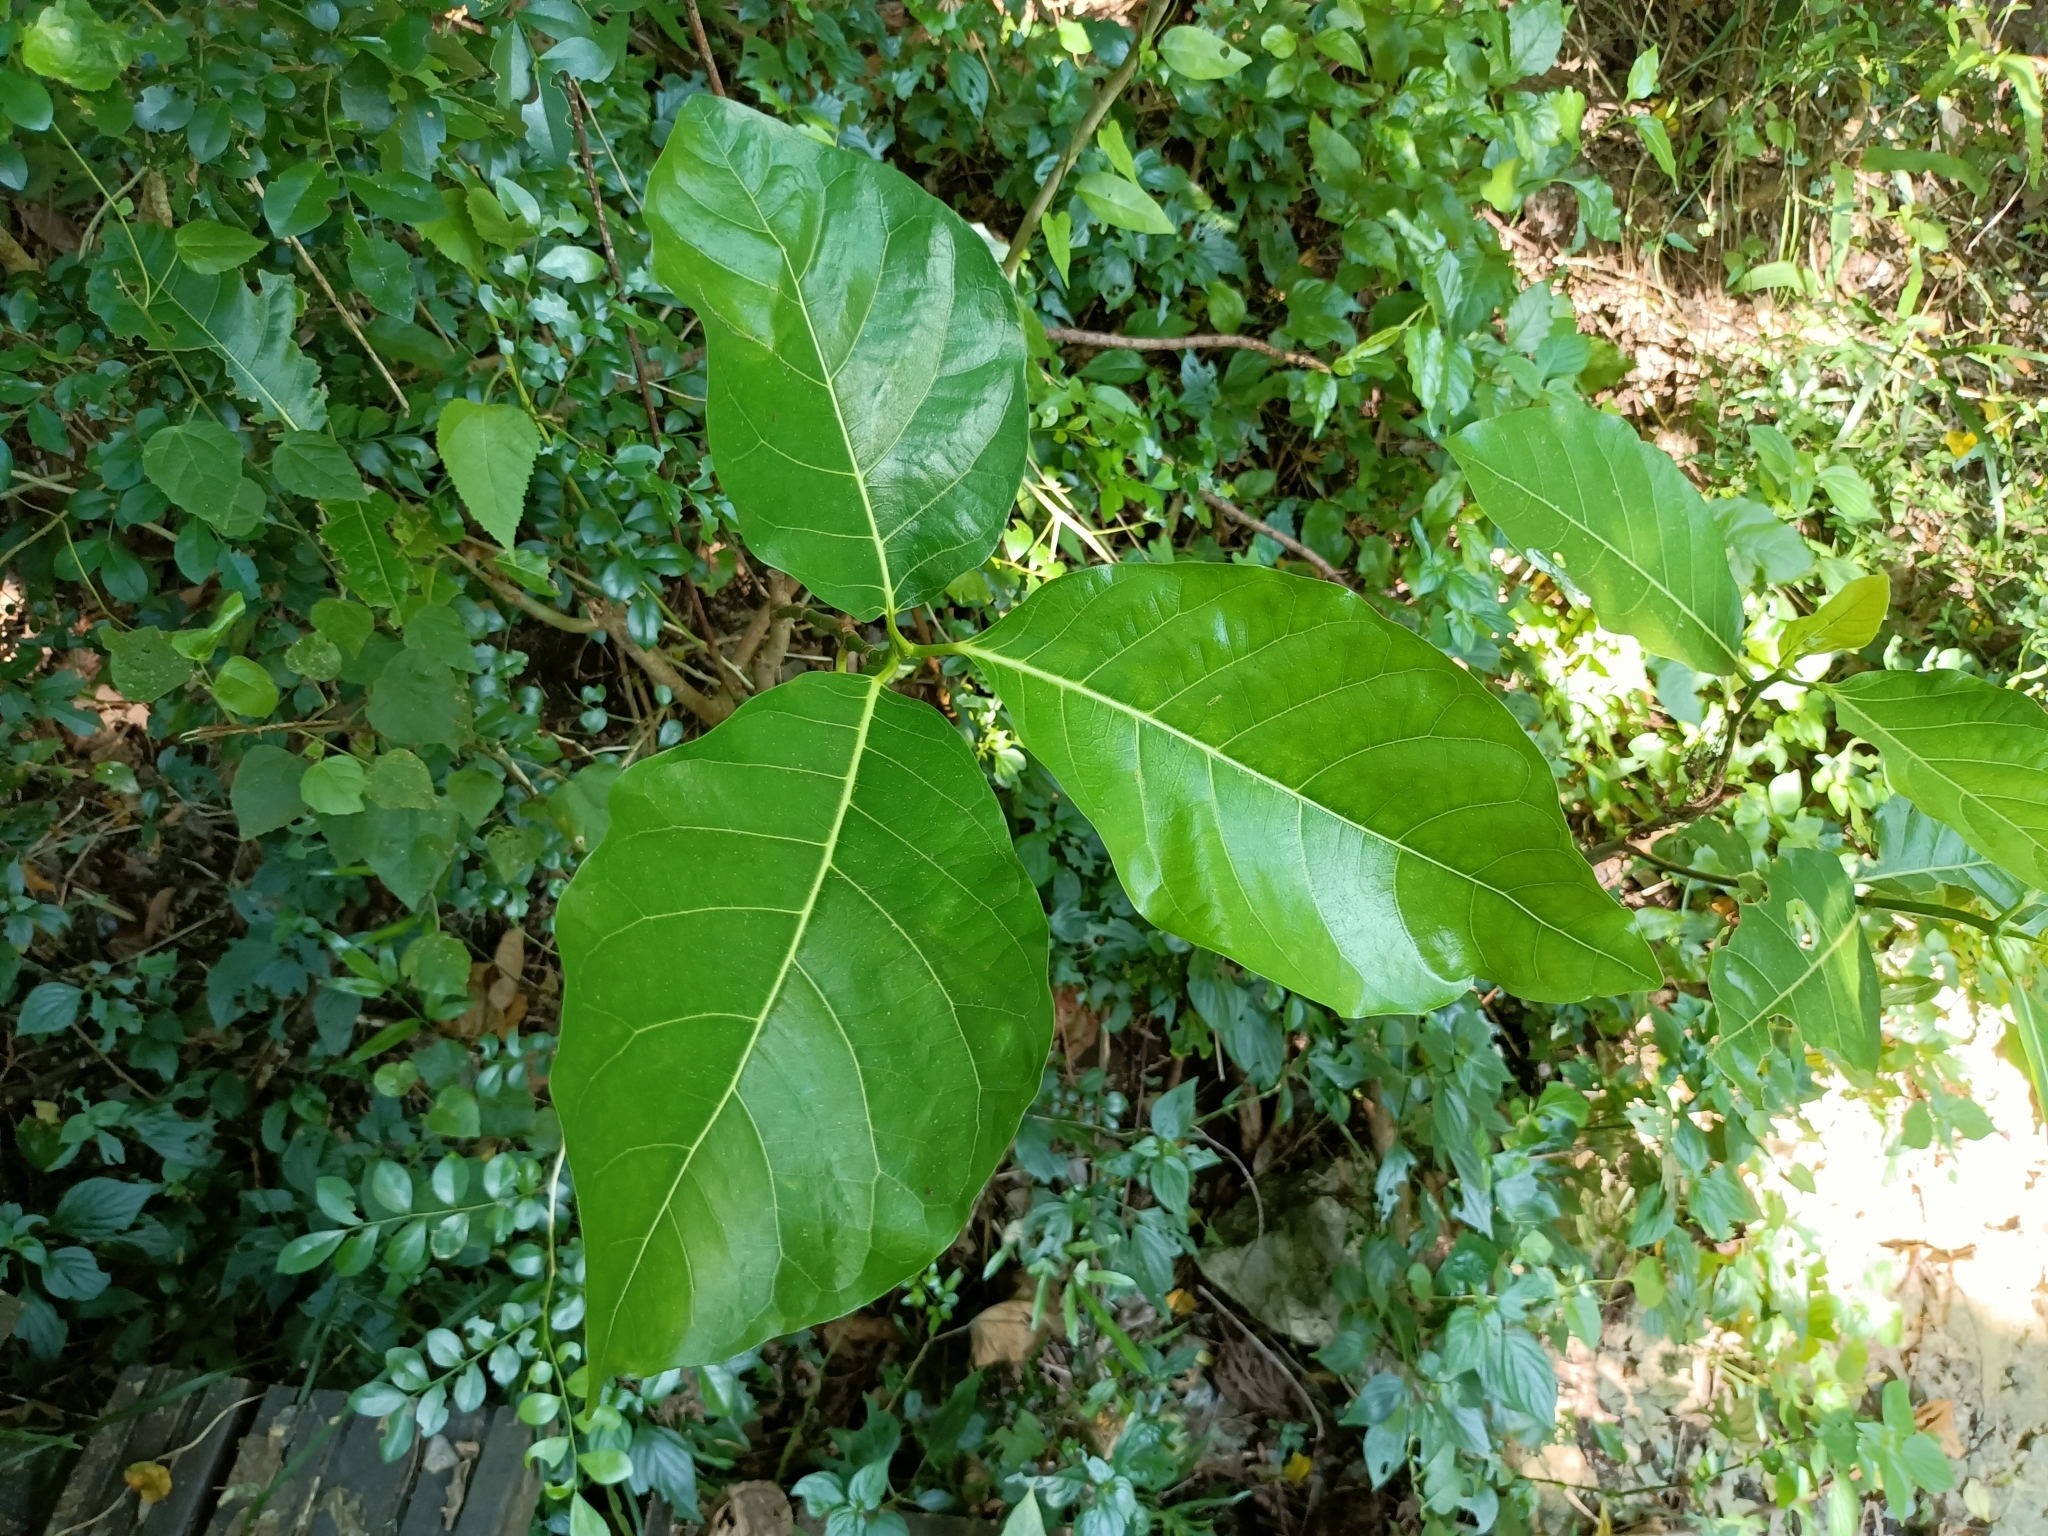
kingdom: Plantae
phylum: Tracheophyta
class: Magnoliopsida
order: Rosales
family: Moraceae
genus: Ficus
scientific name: Ficus septica
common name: Septic fig
